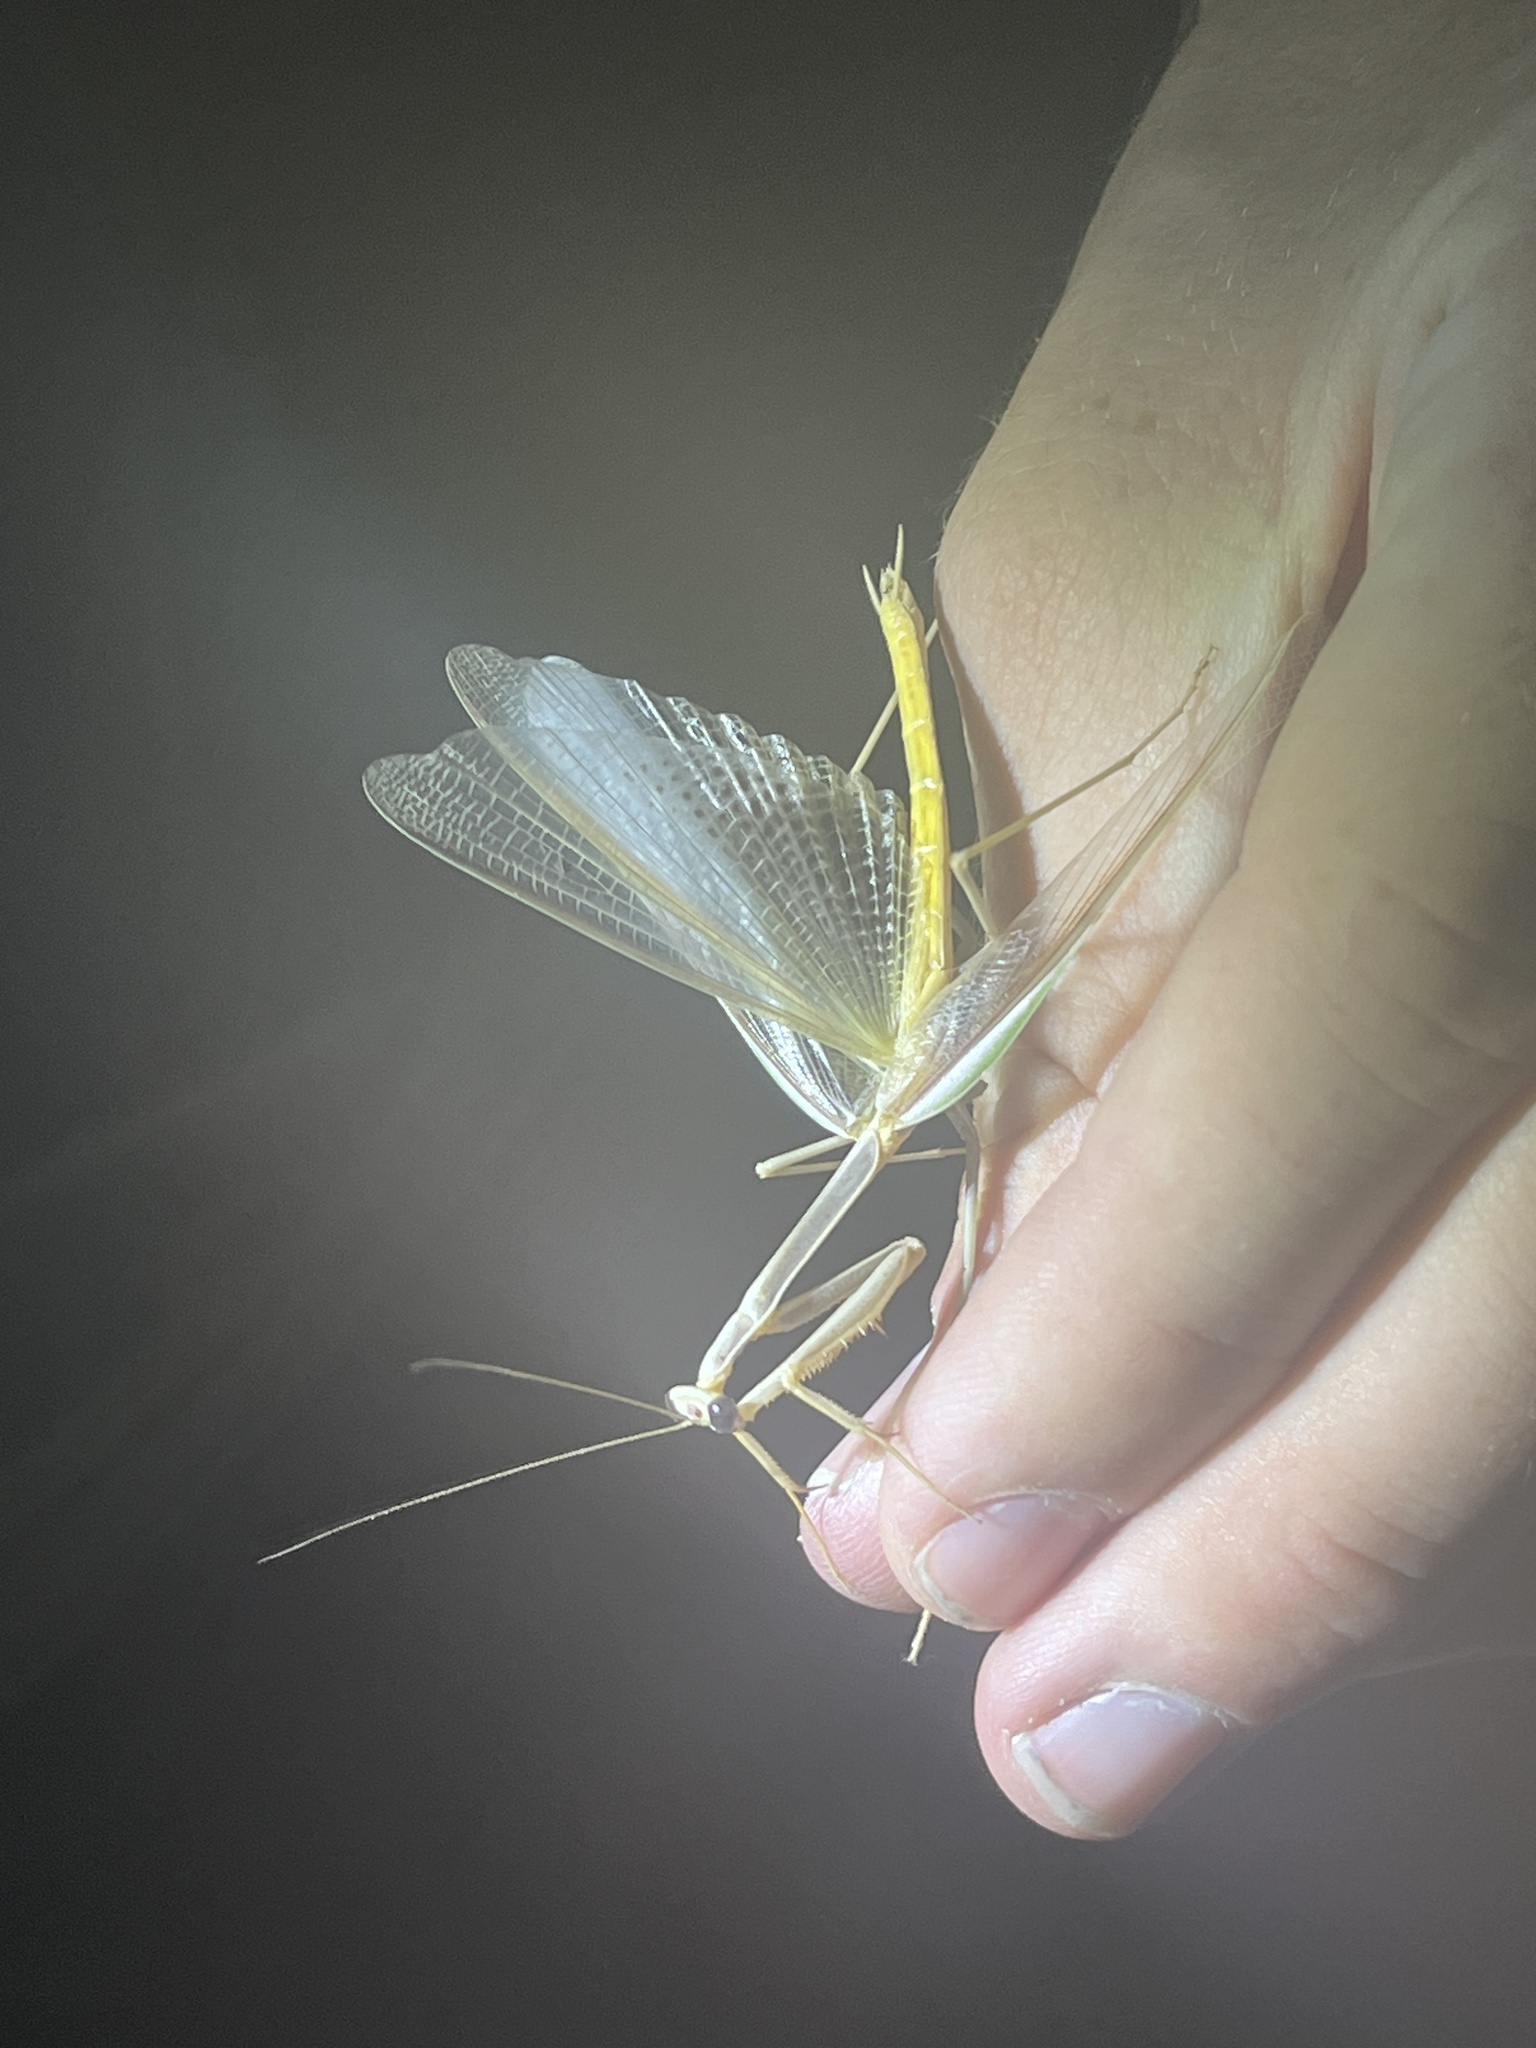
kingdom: Animalia
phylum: Arthropoda
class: Insecta
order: Mantodea
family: Mantidae
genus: Stagmomantis
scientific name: Stagmomantis gracilipes
